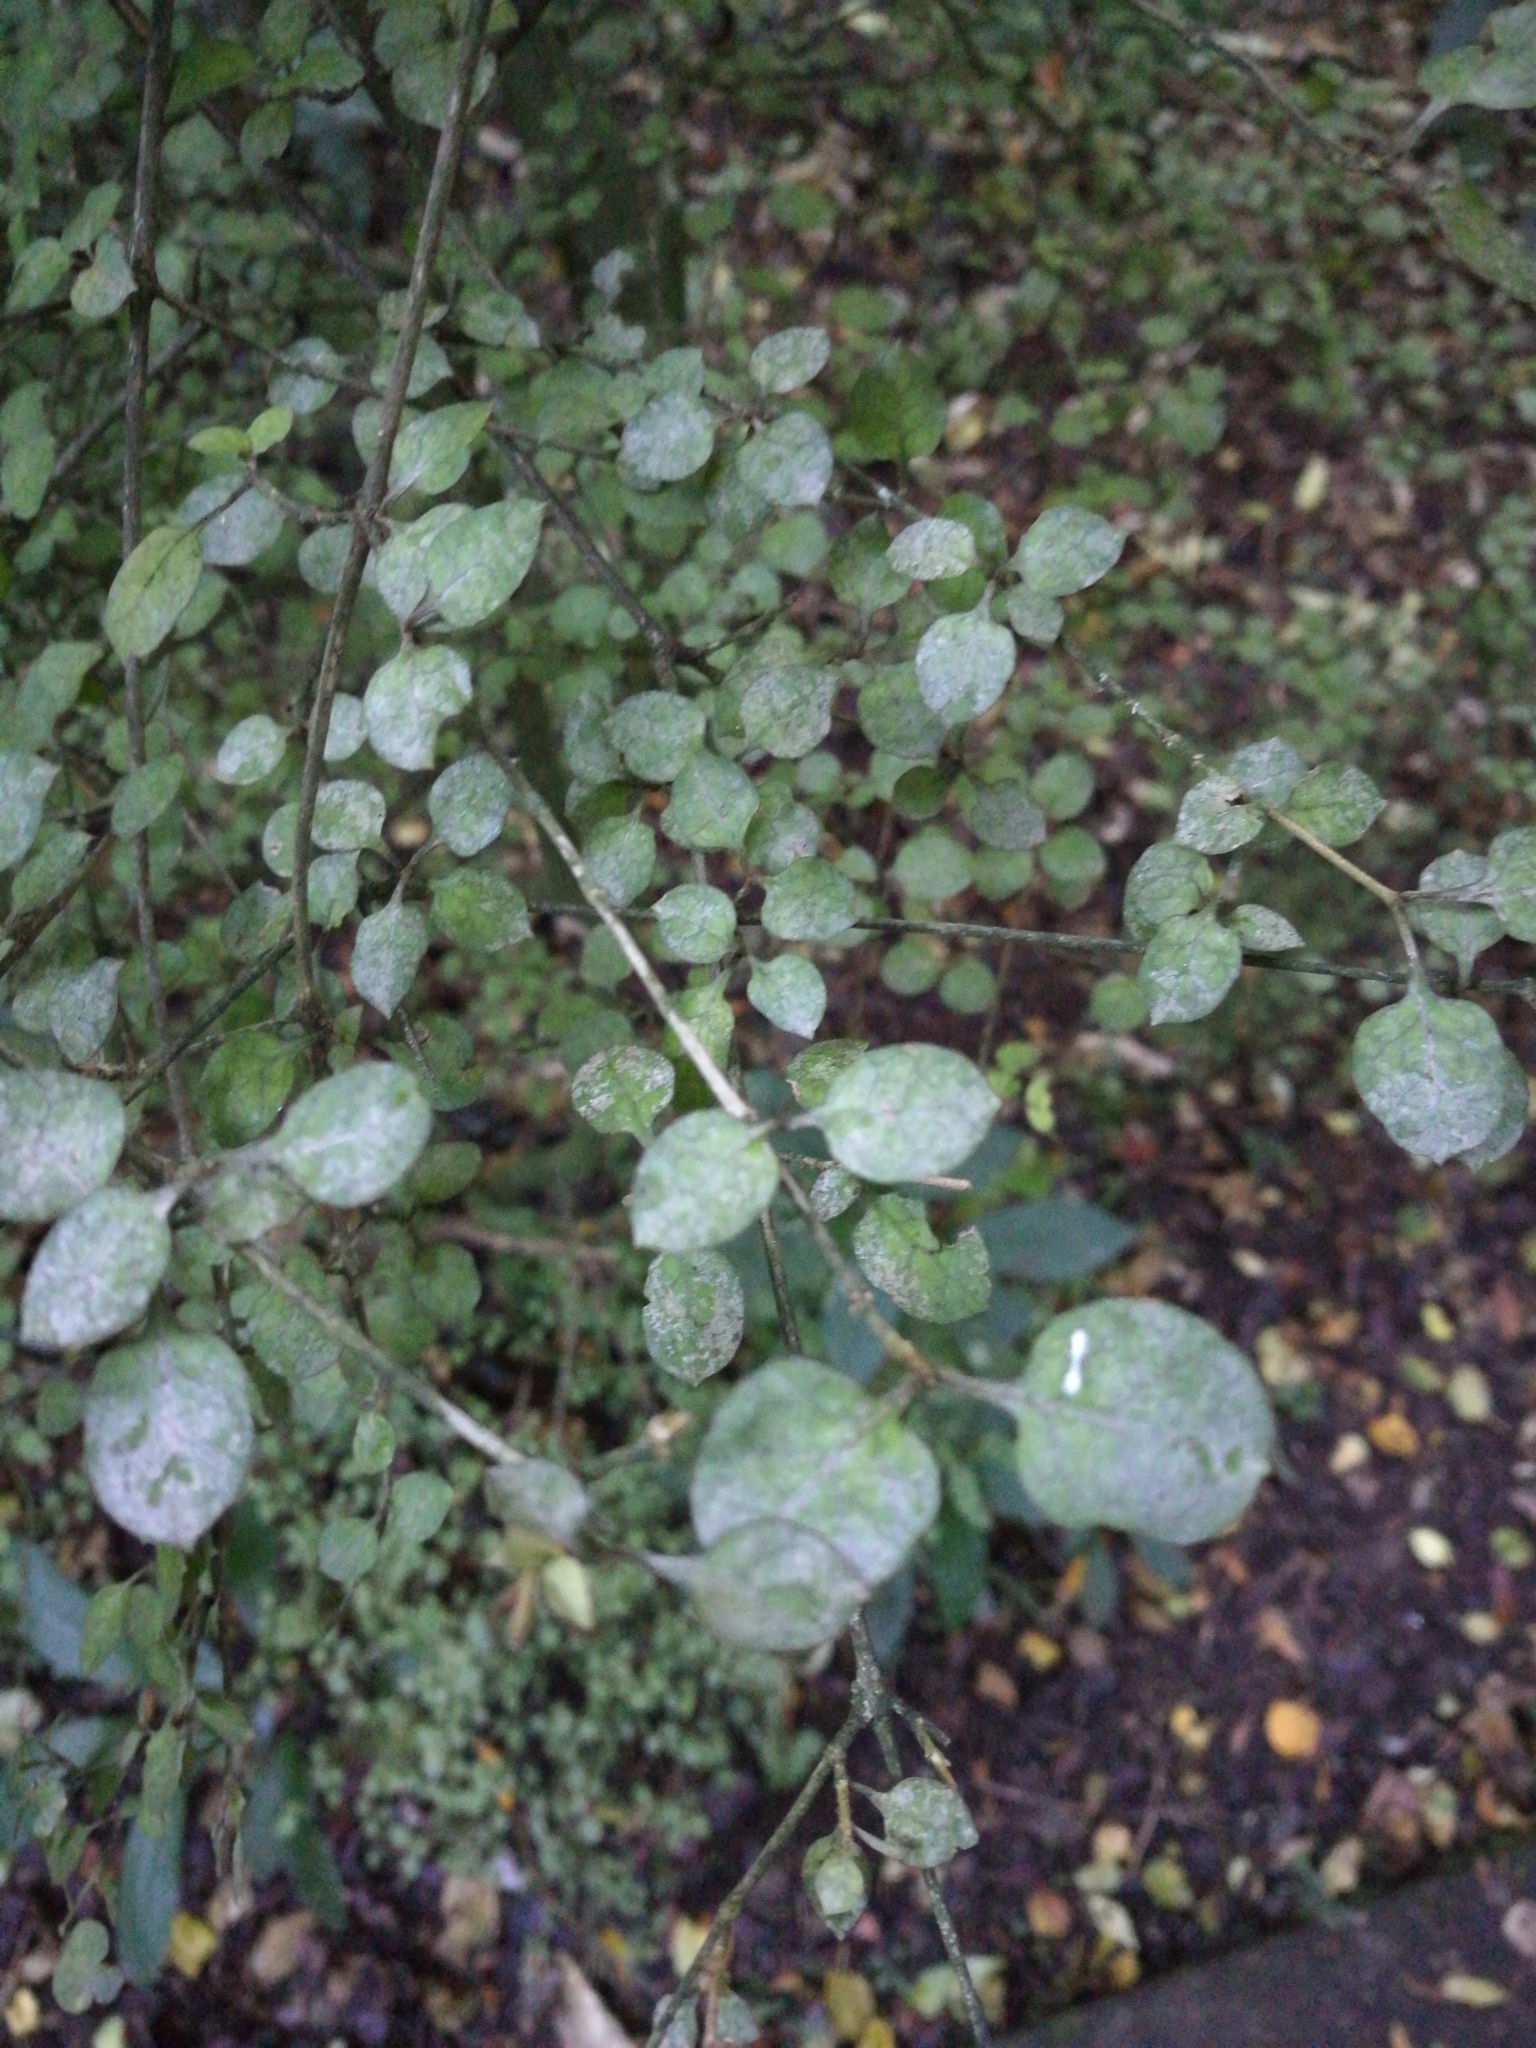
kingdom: Plantae
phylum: Tracheophyta
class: Magnoliopsida
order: Gentianales
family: Rubiaceae
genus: Coprosma
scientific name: Coprosma areolata
